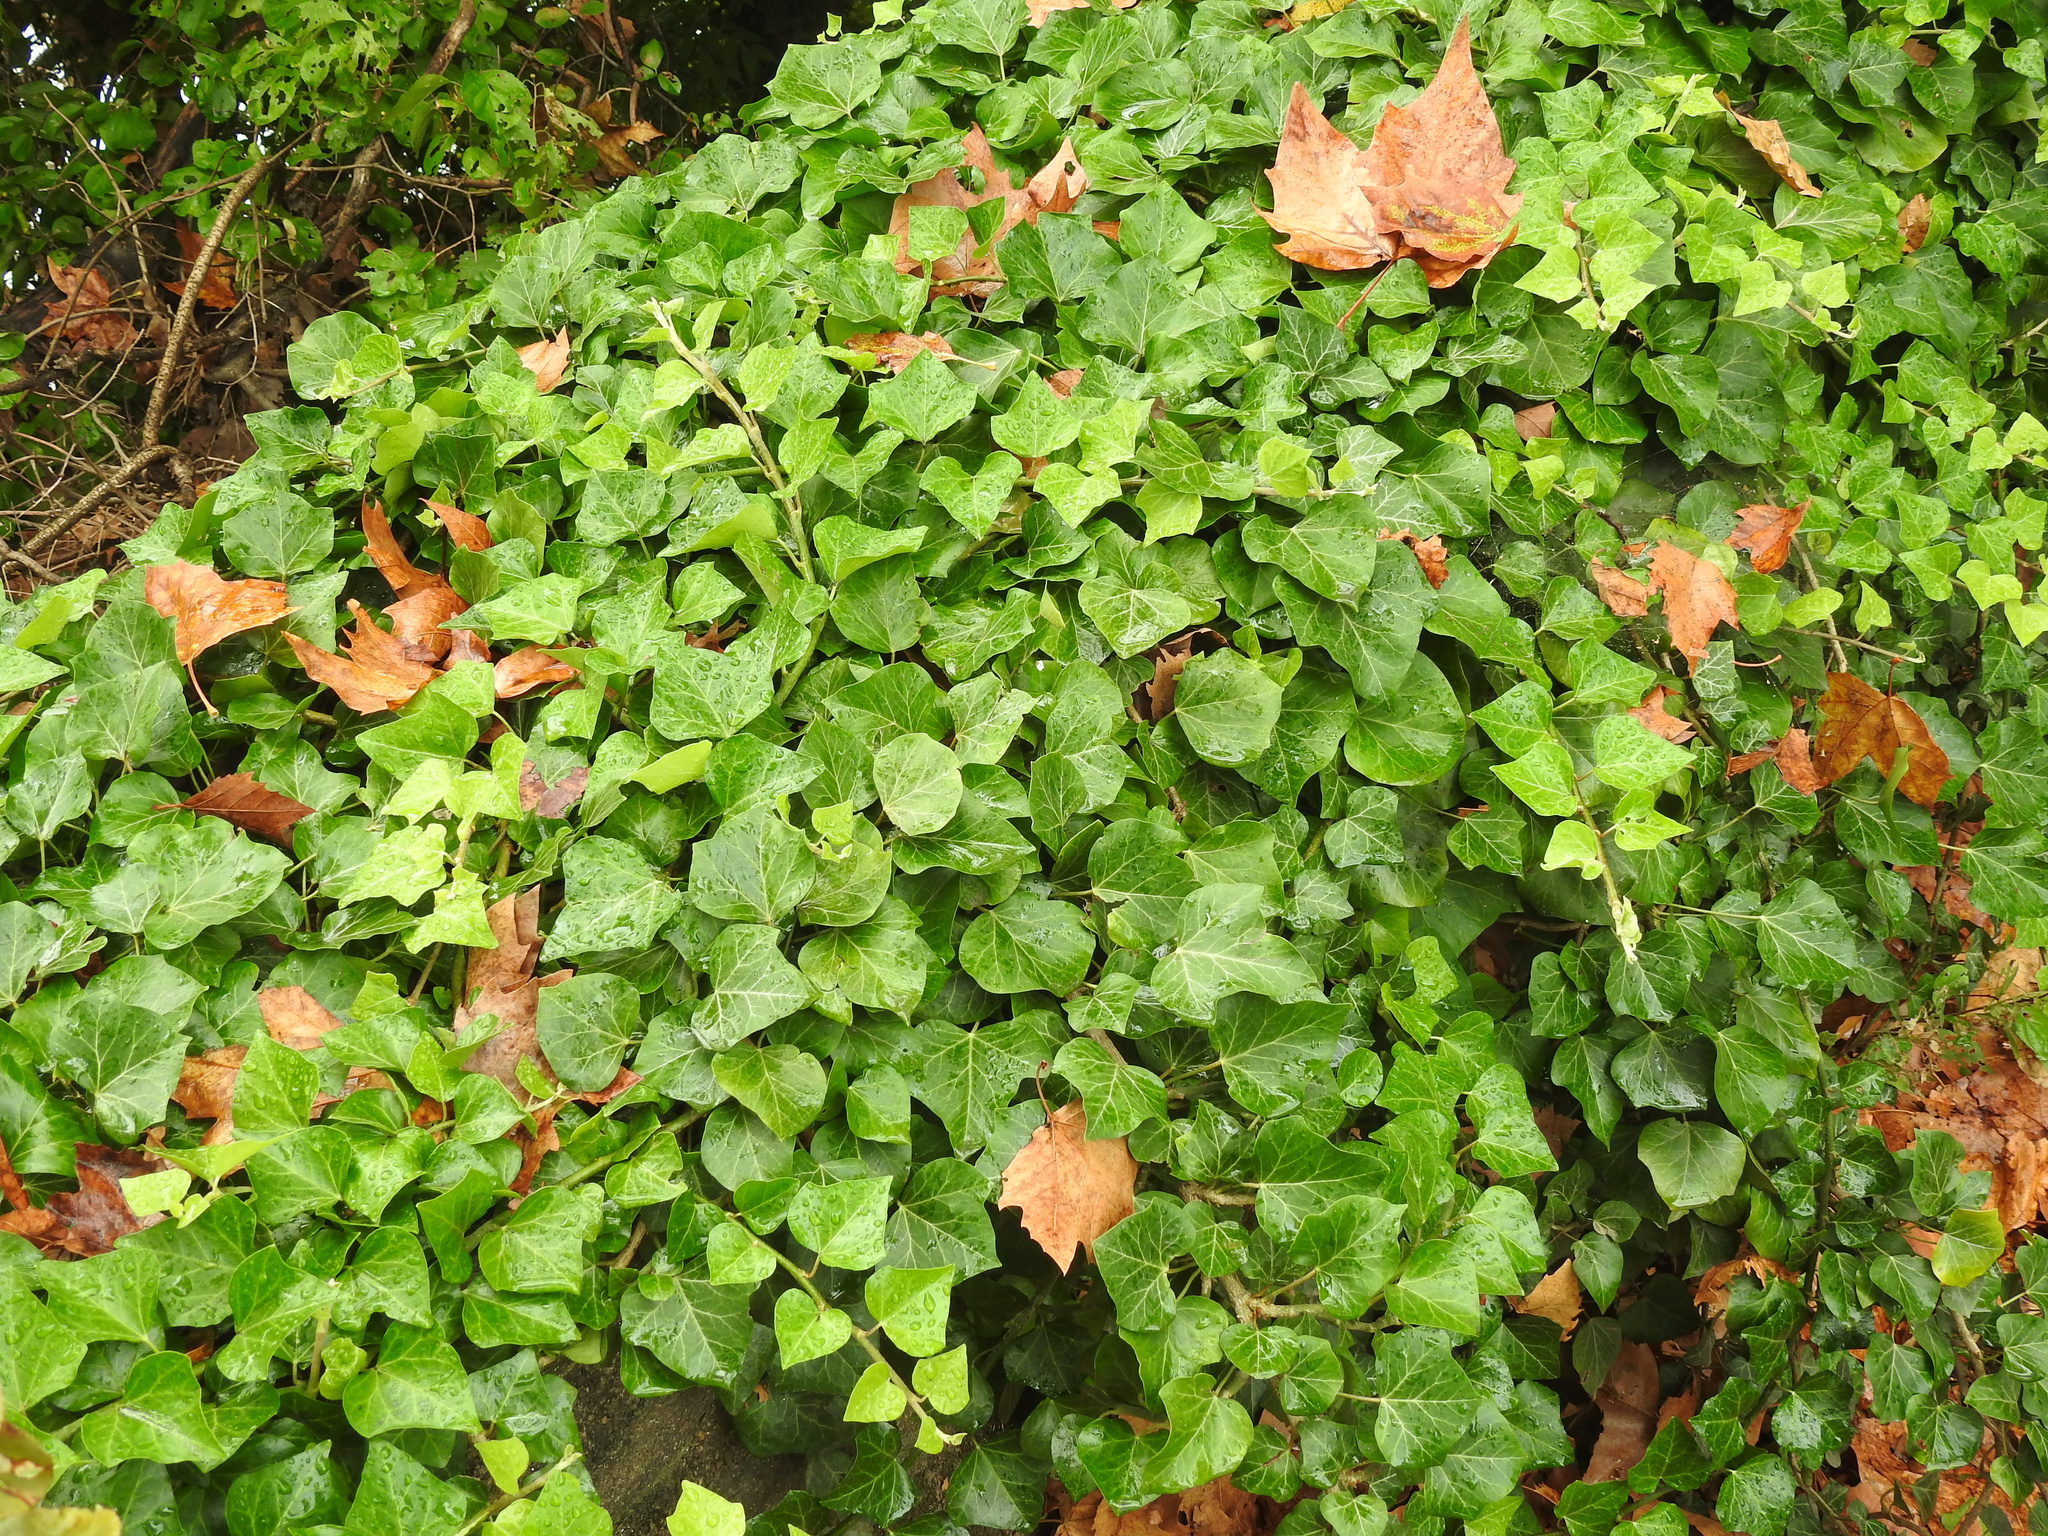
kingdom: Plantae
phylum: Tracheophyta
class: Magnoliopsida
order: Apiales
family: Araliaceae
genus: Hedera
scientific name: Hedera helix
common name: Ivy
